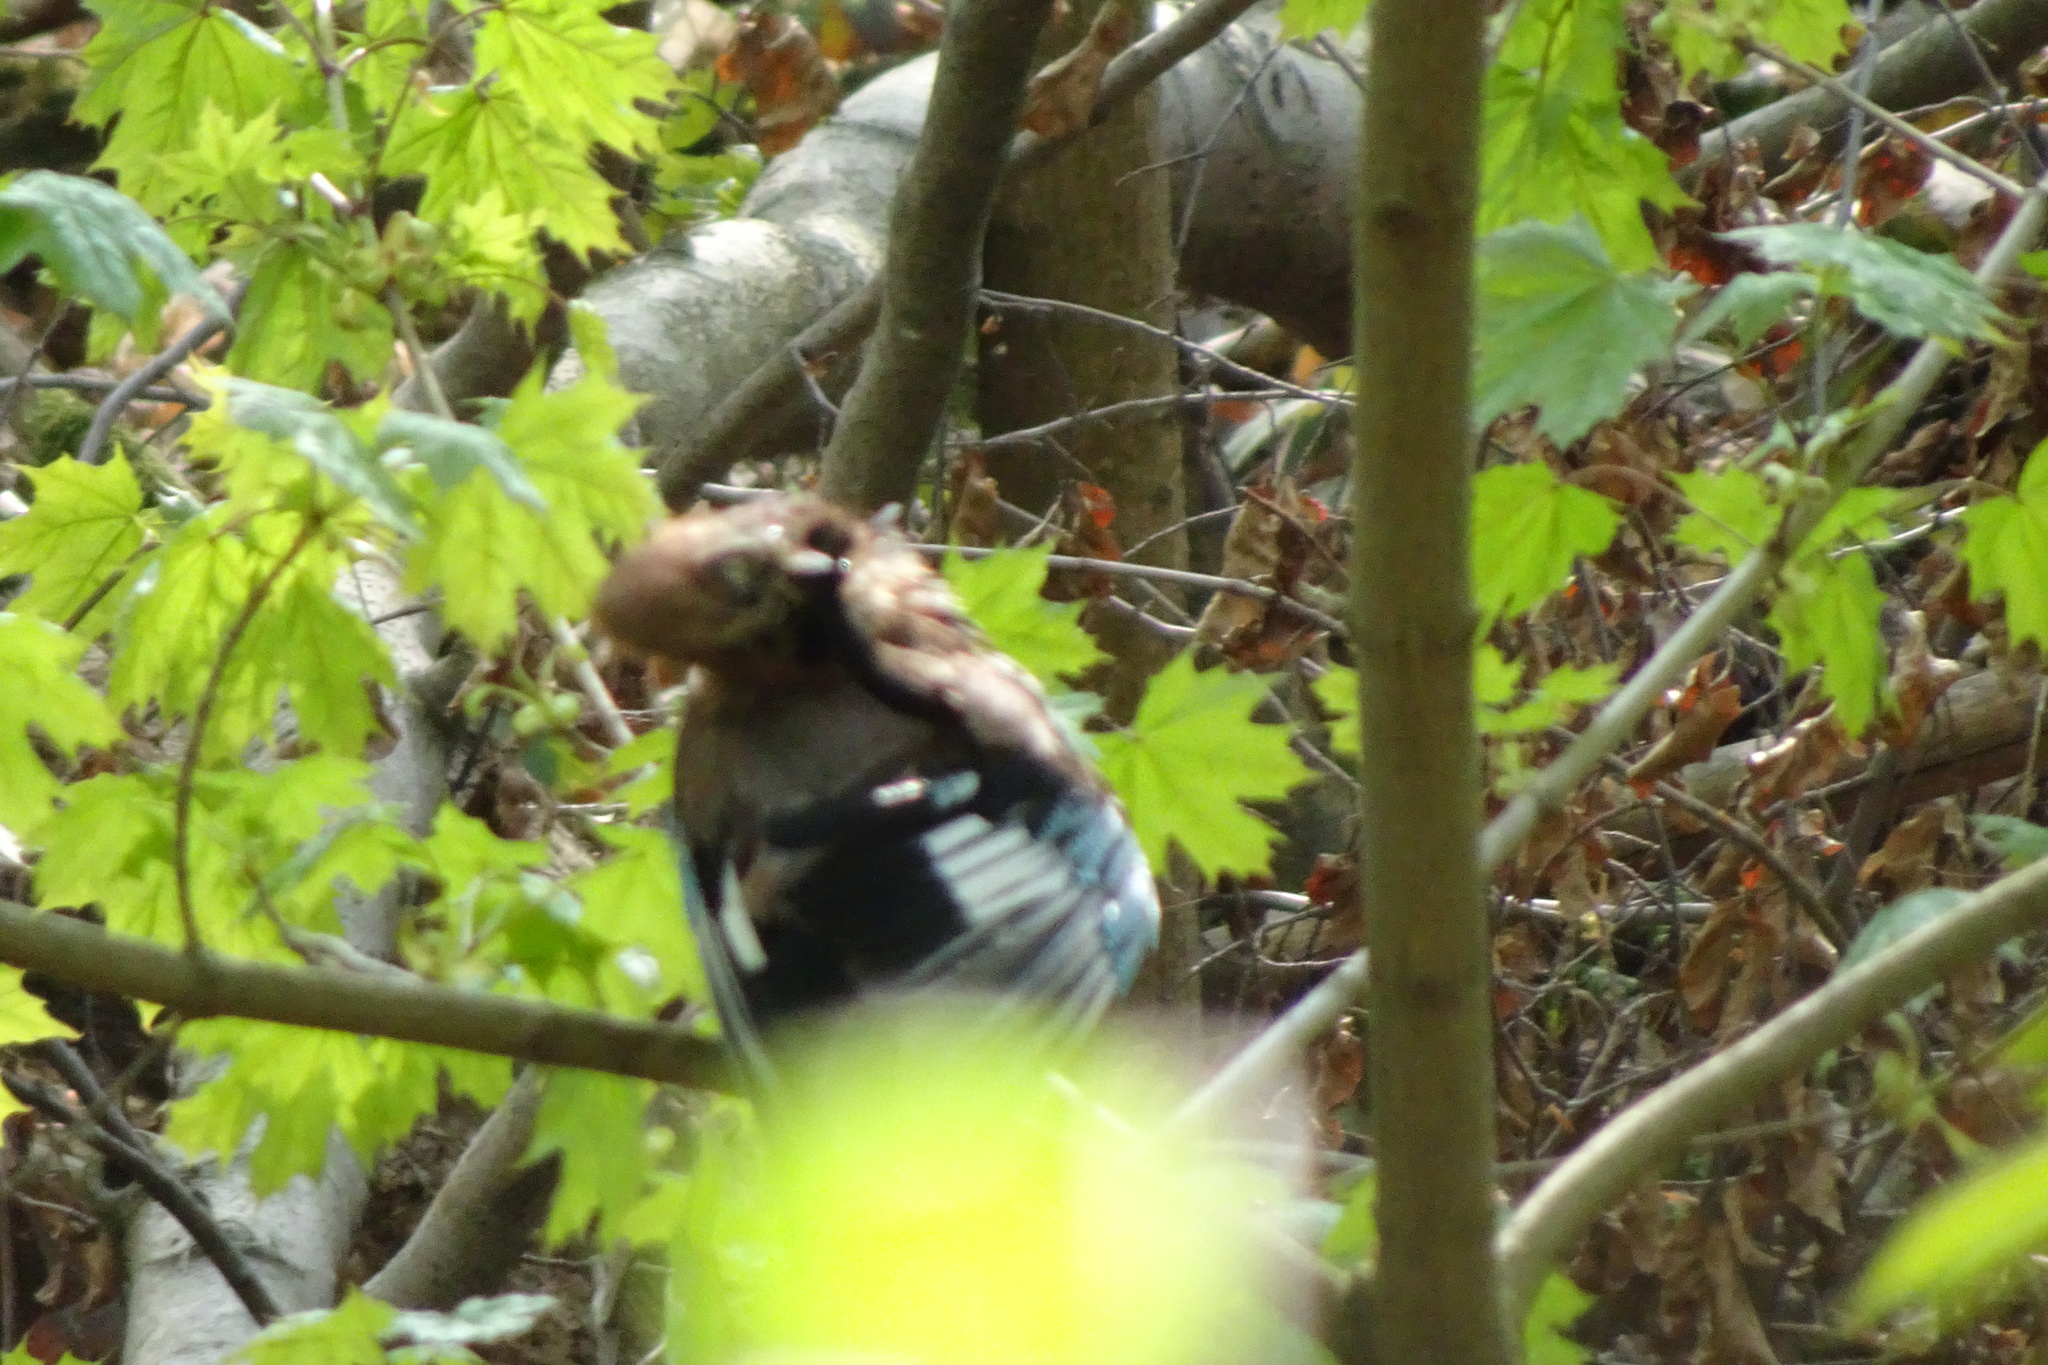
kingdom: Animalia
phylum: Chordata
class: Aves
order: Passeriformes
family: Corvidae
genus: Garrulus
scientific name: Garrulus glandarius
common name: Eurasian jay
